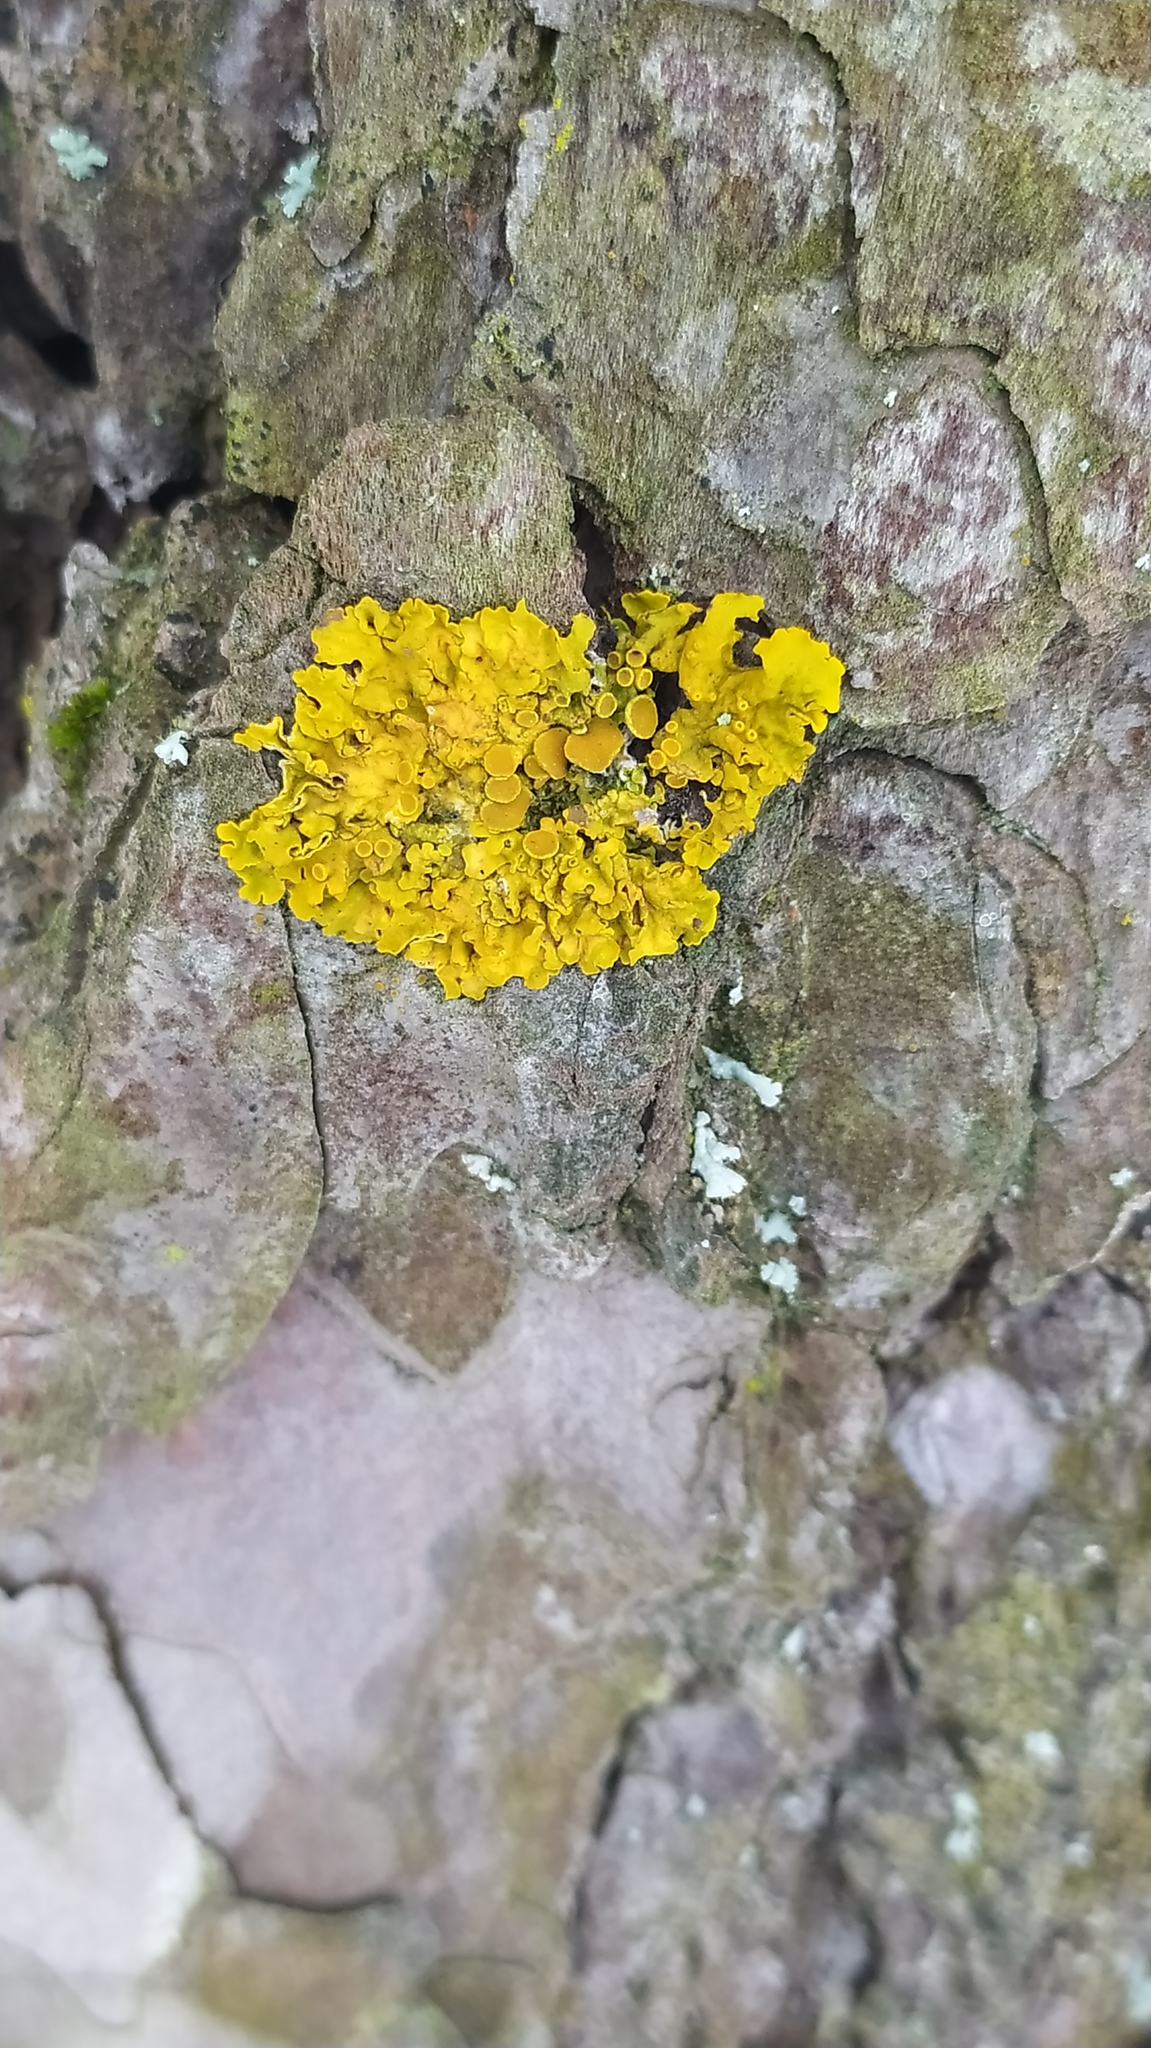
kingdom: Fungi
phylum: Ascomycota
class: Lecanoromycetes
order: Teloschistales
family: Teloschistaceae
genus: Xanthoria
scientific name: Xanthoria parietina
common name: Common orange lichen
